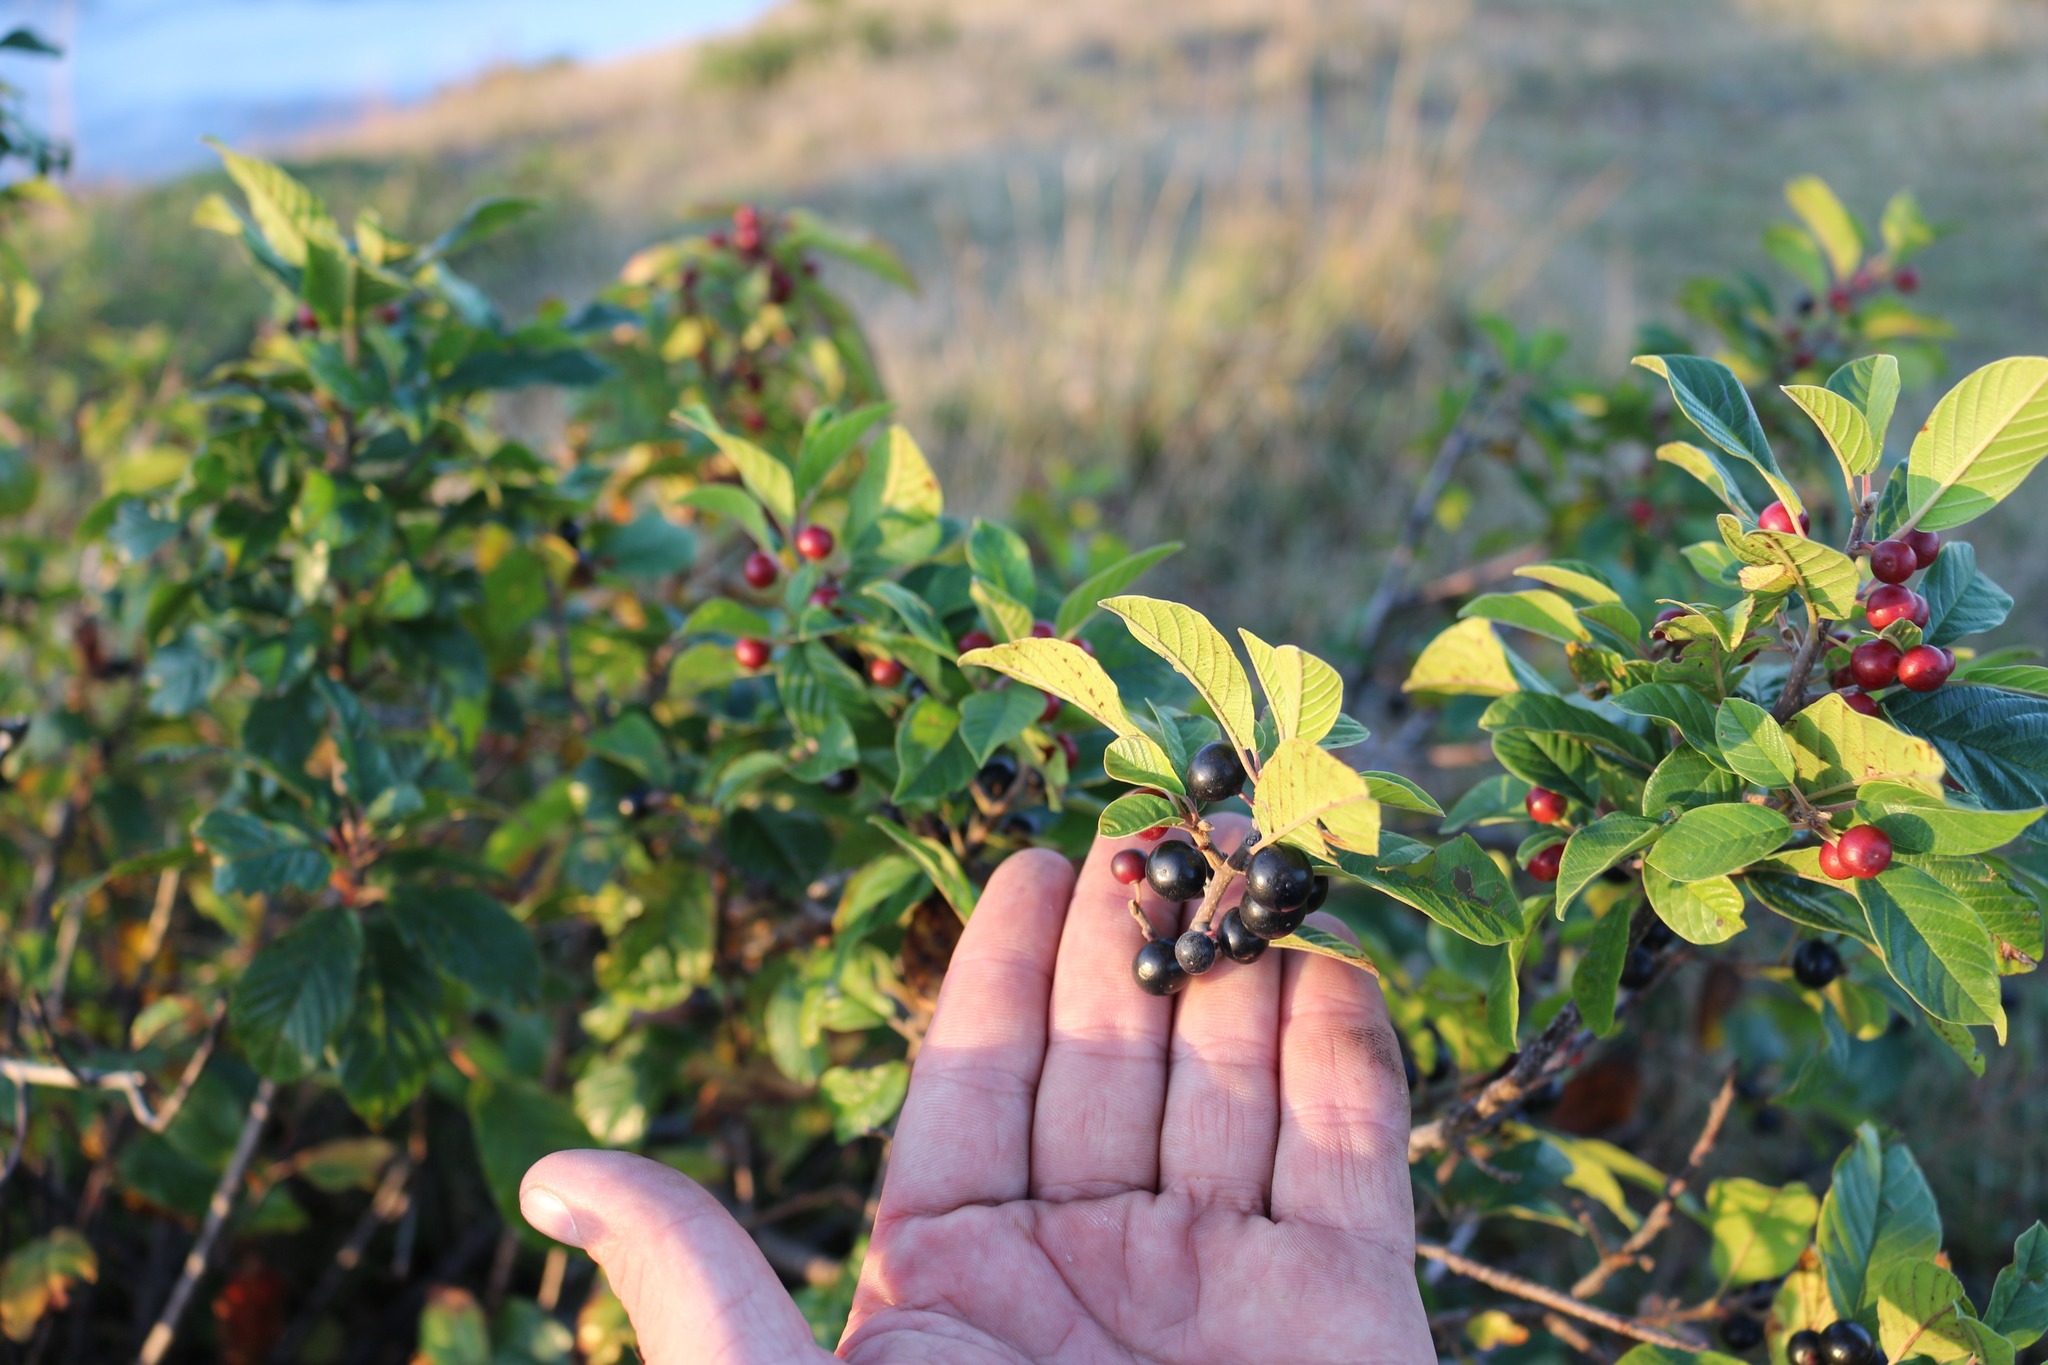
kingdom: Plantae
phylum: Tracheophyta
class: Magnoliopsida
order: Rosales
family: Rhamnaceae
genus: Frangula
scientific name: Frangula alnus
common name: Alder buckthorn
